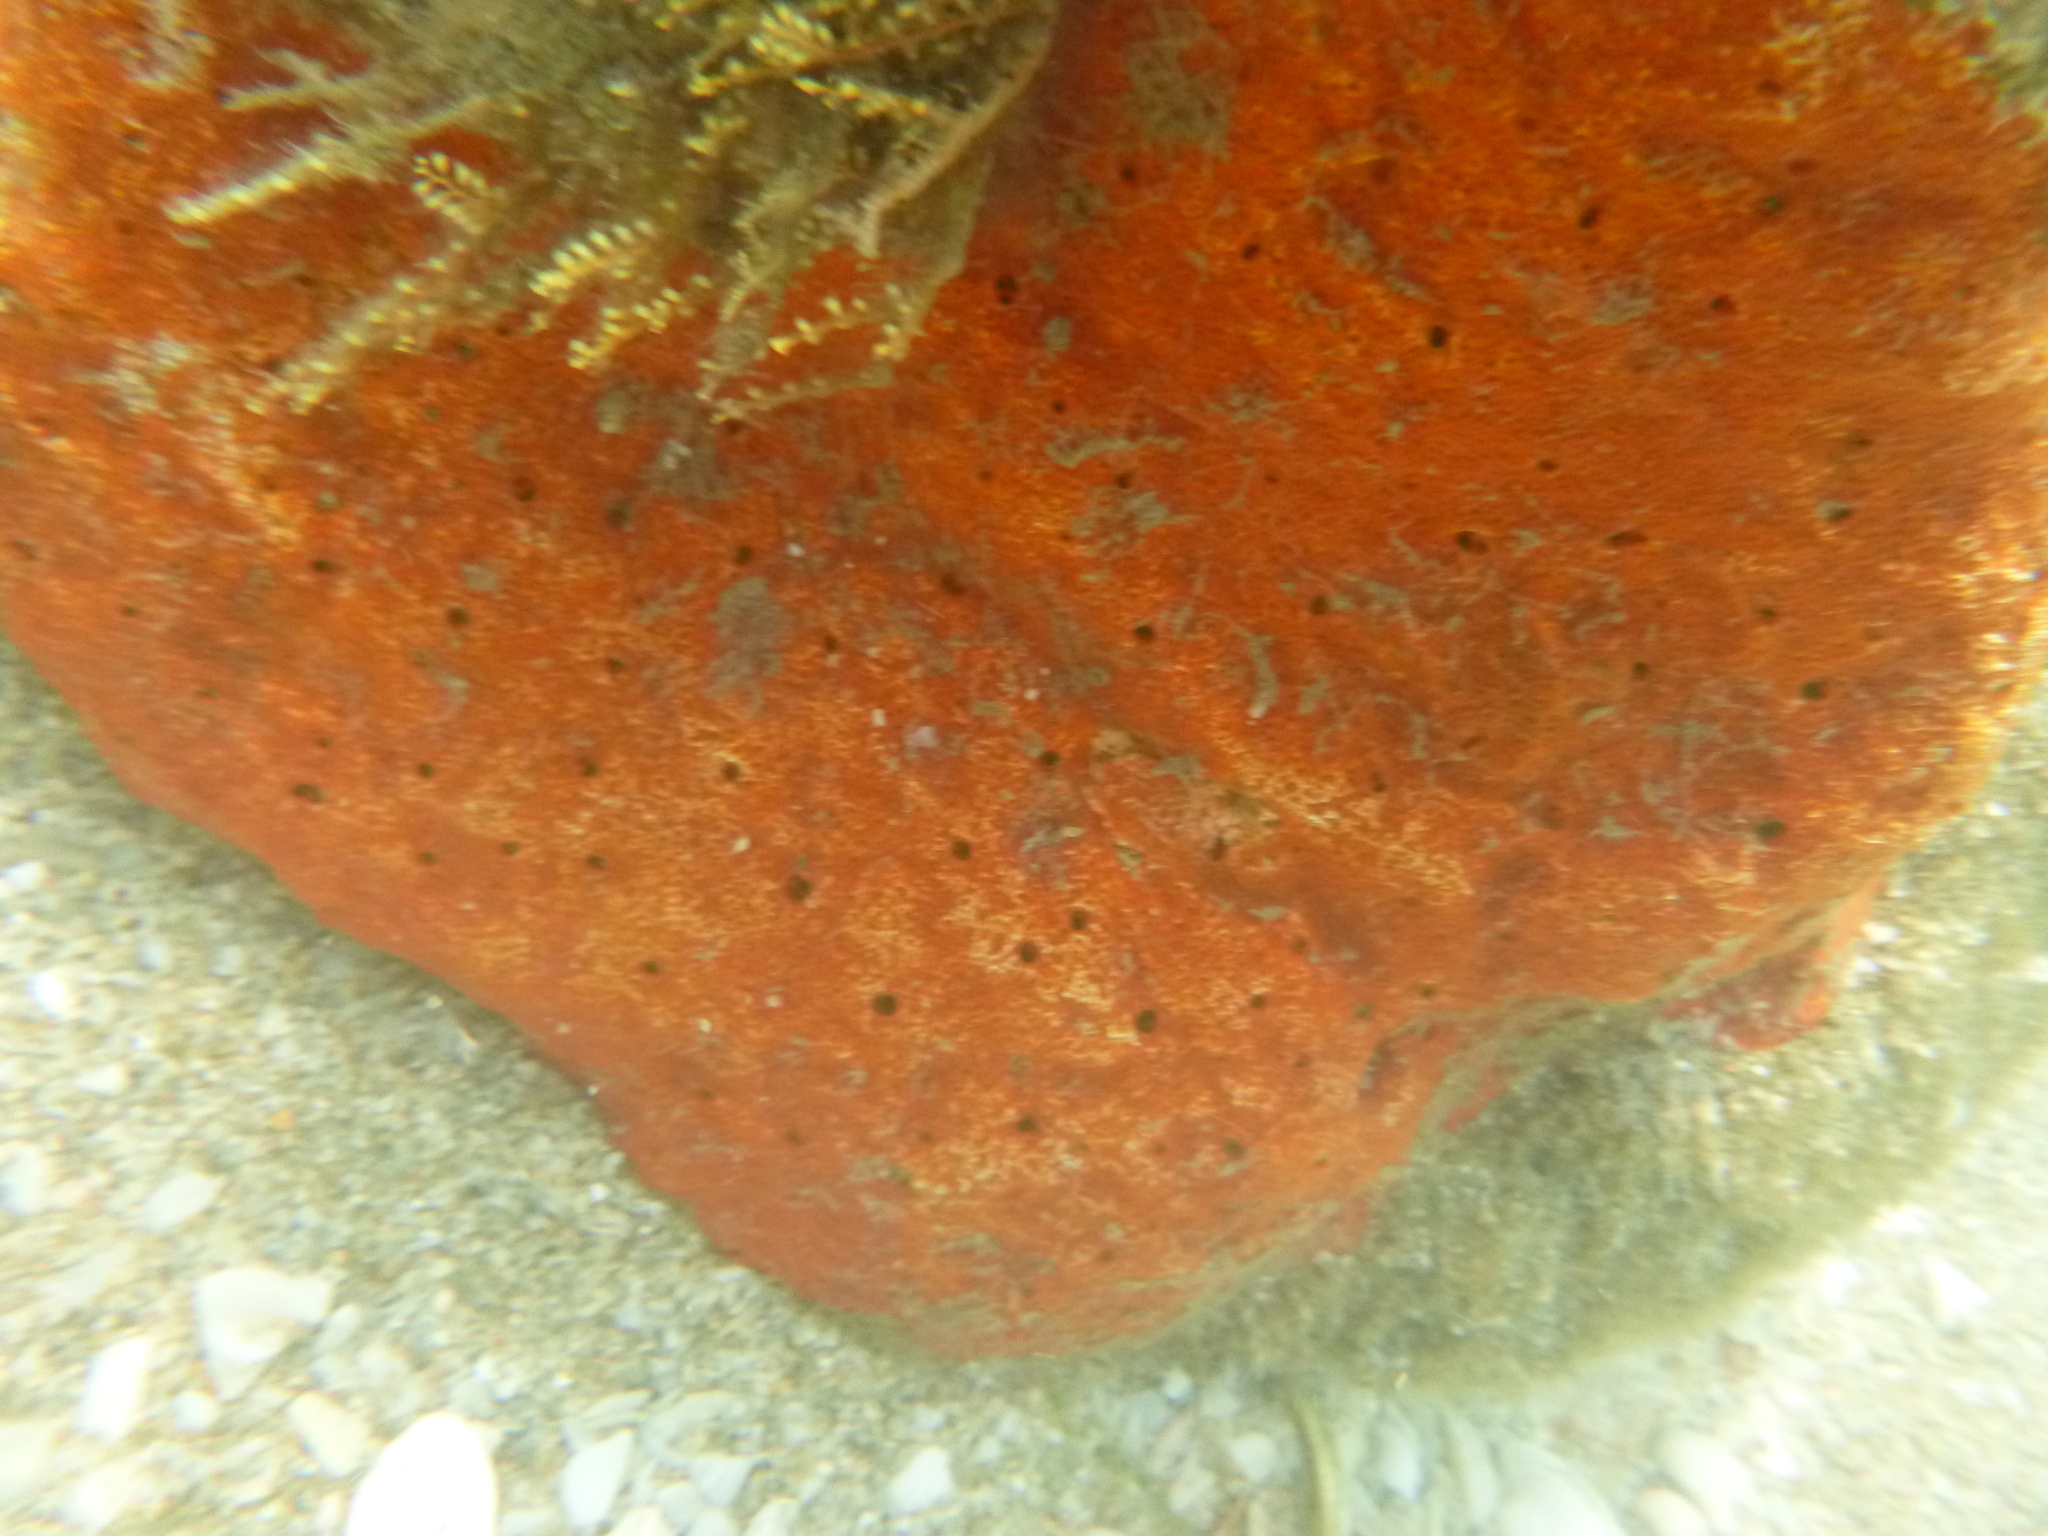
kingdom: Animalia
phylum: Porifera
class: Demospongiae
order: Clionaida
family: Clionaidae
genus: Pione
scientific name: Pione lampa
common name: Red boring sponge
